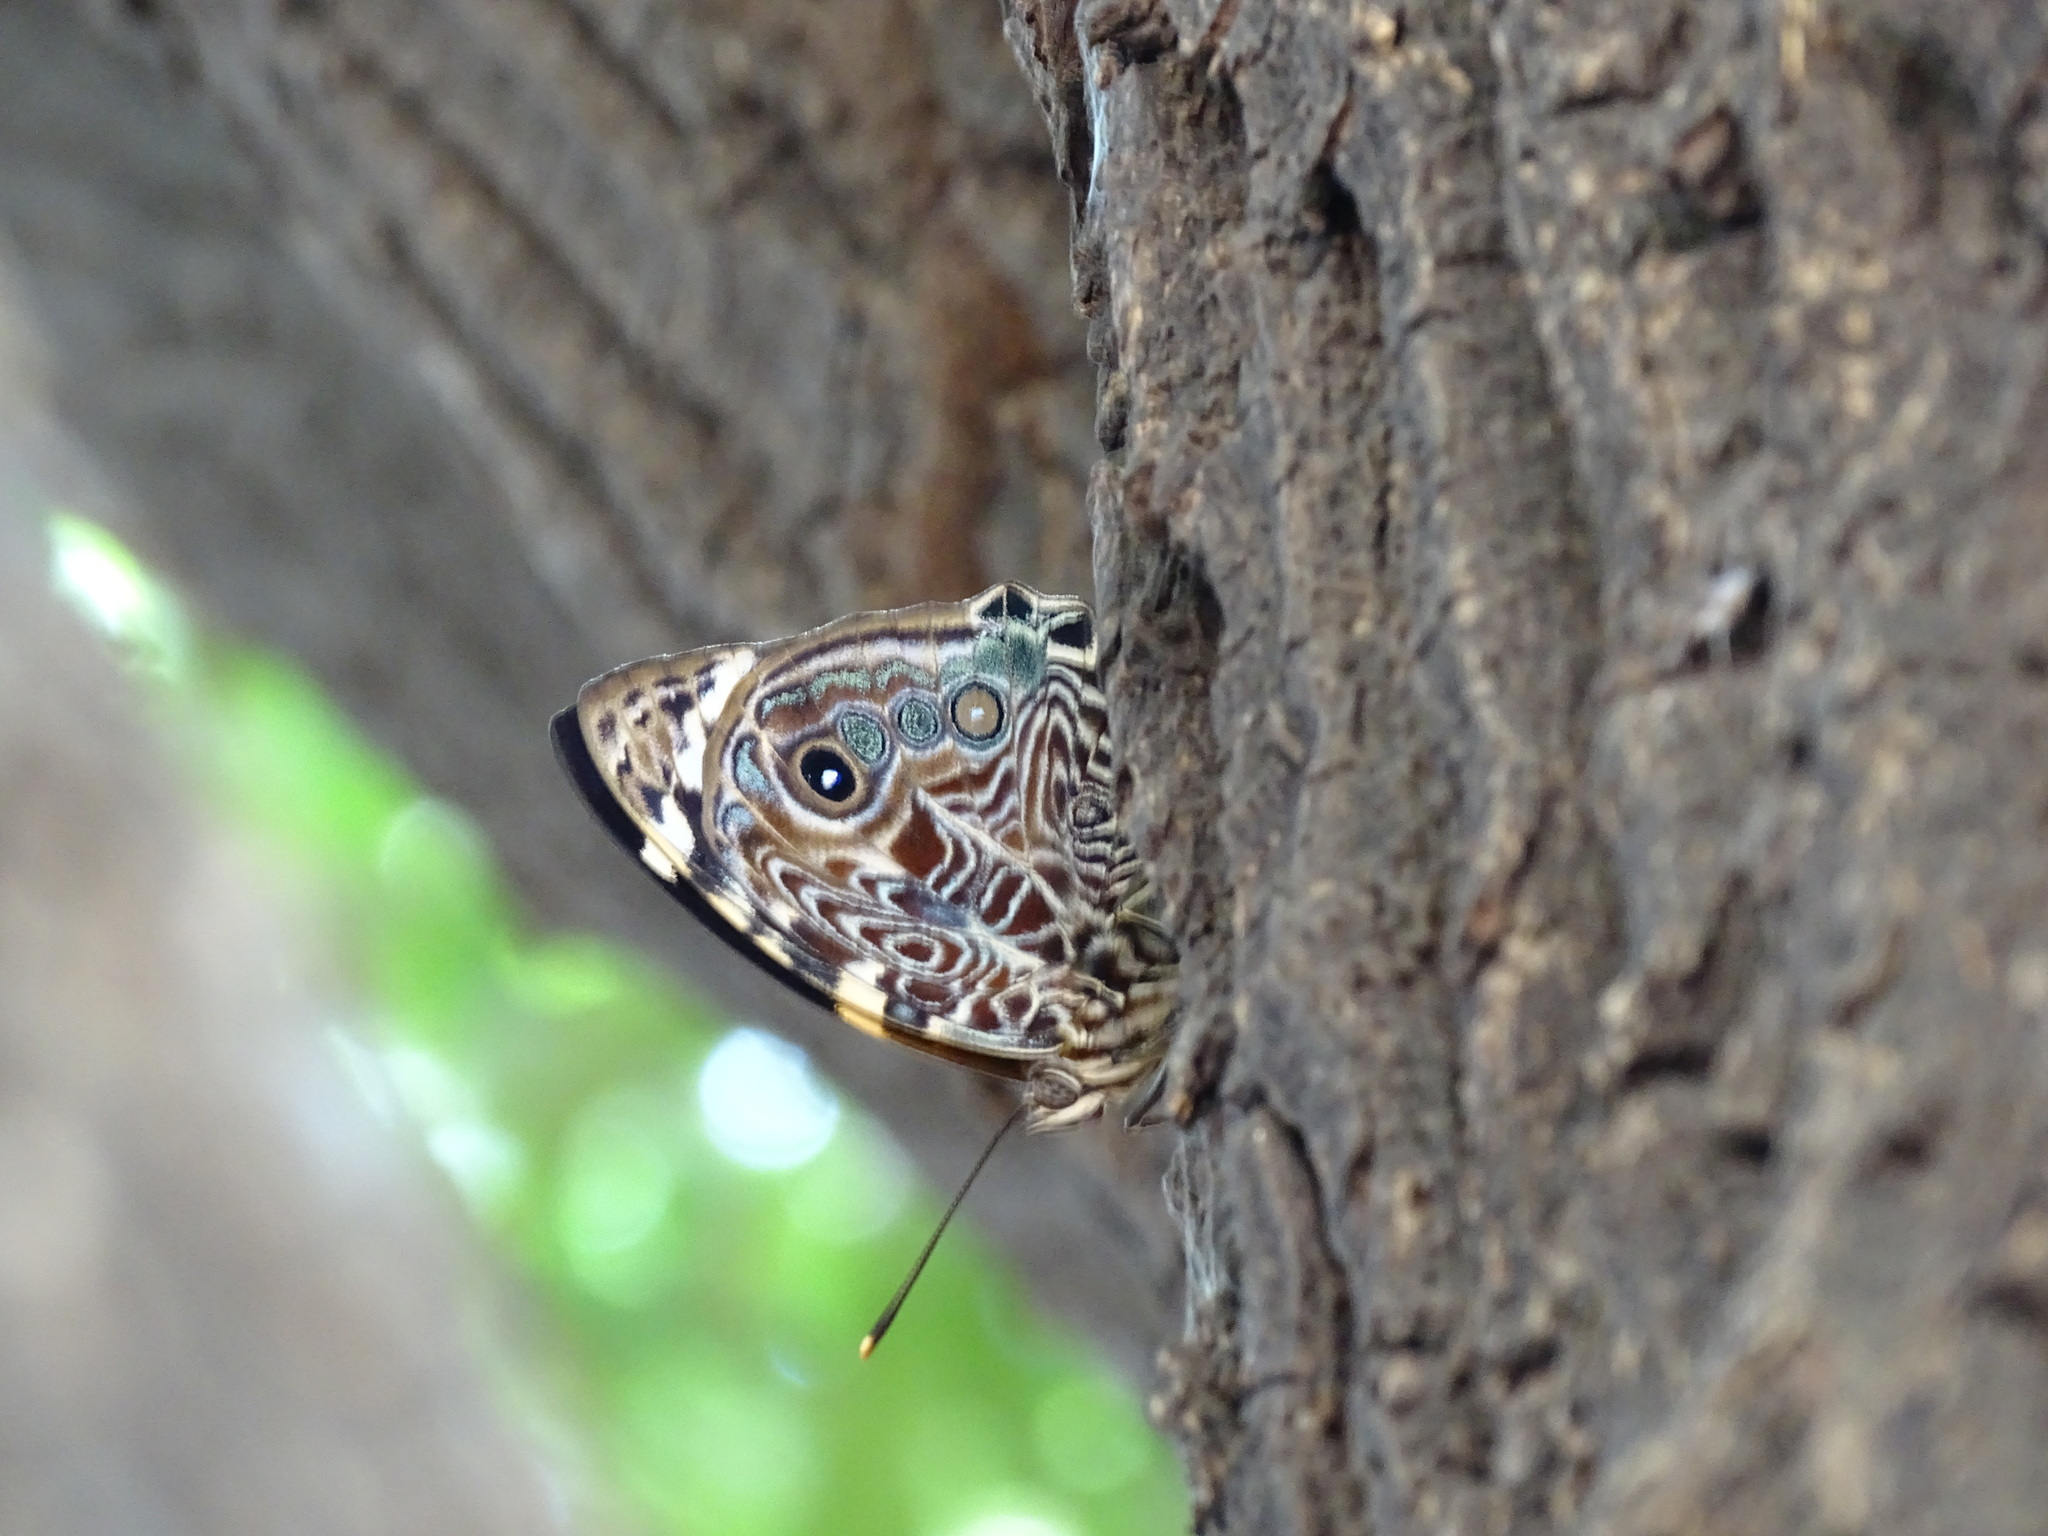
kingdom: Animalia
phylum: Arthropoda
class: Insecta
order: Lepidoptera
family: Nymphalidae
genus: Smyrna
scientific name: Smyrna blomfildia
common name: Blomfild's beauty
